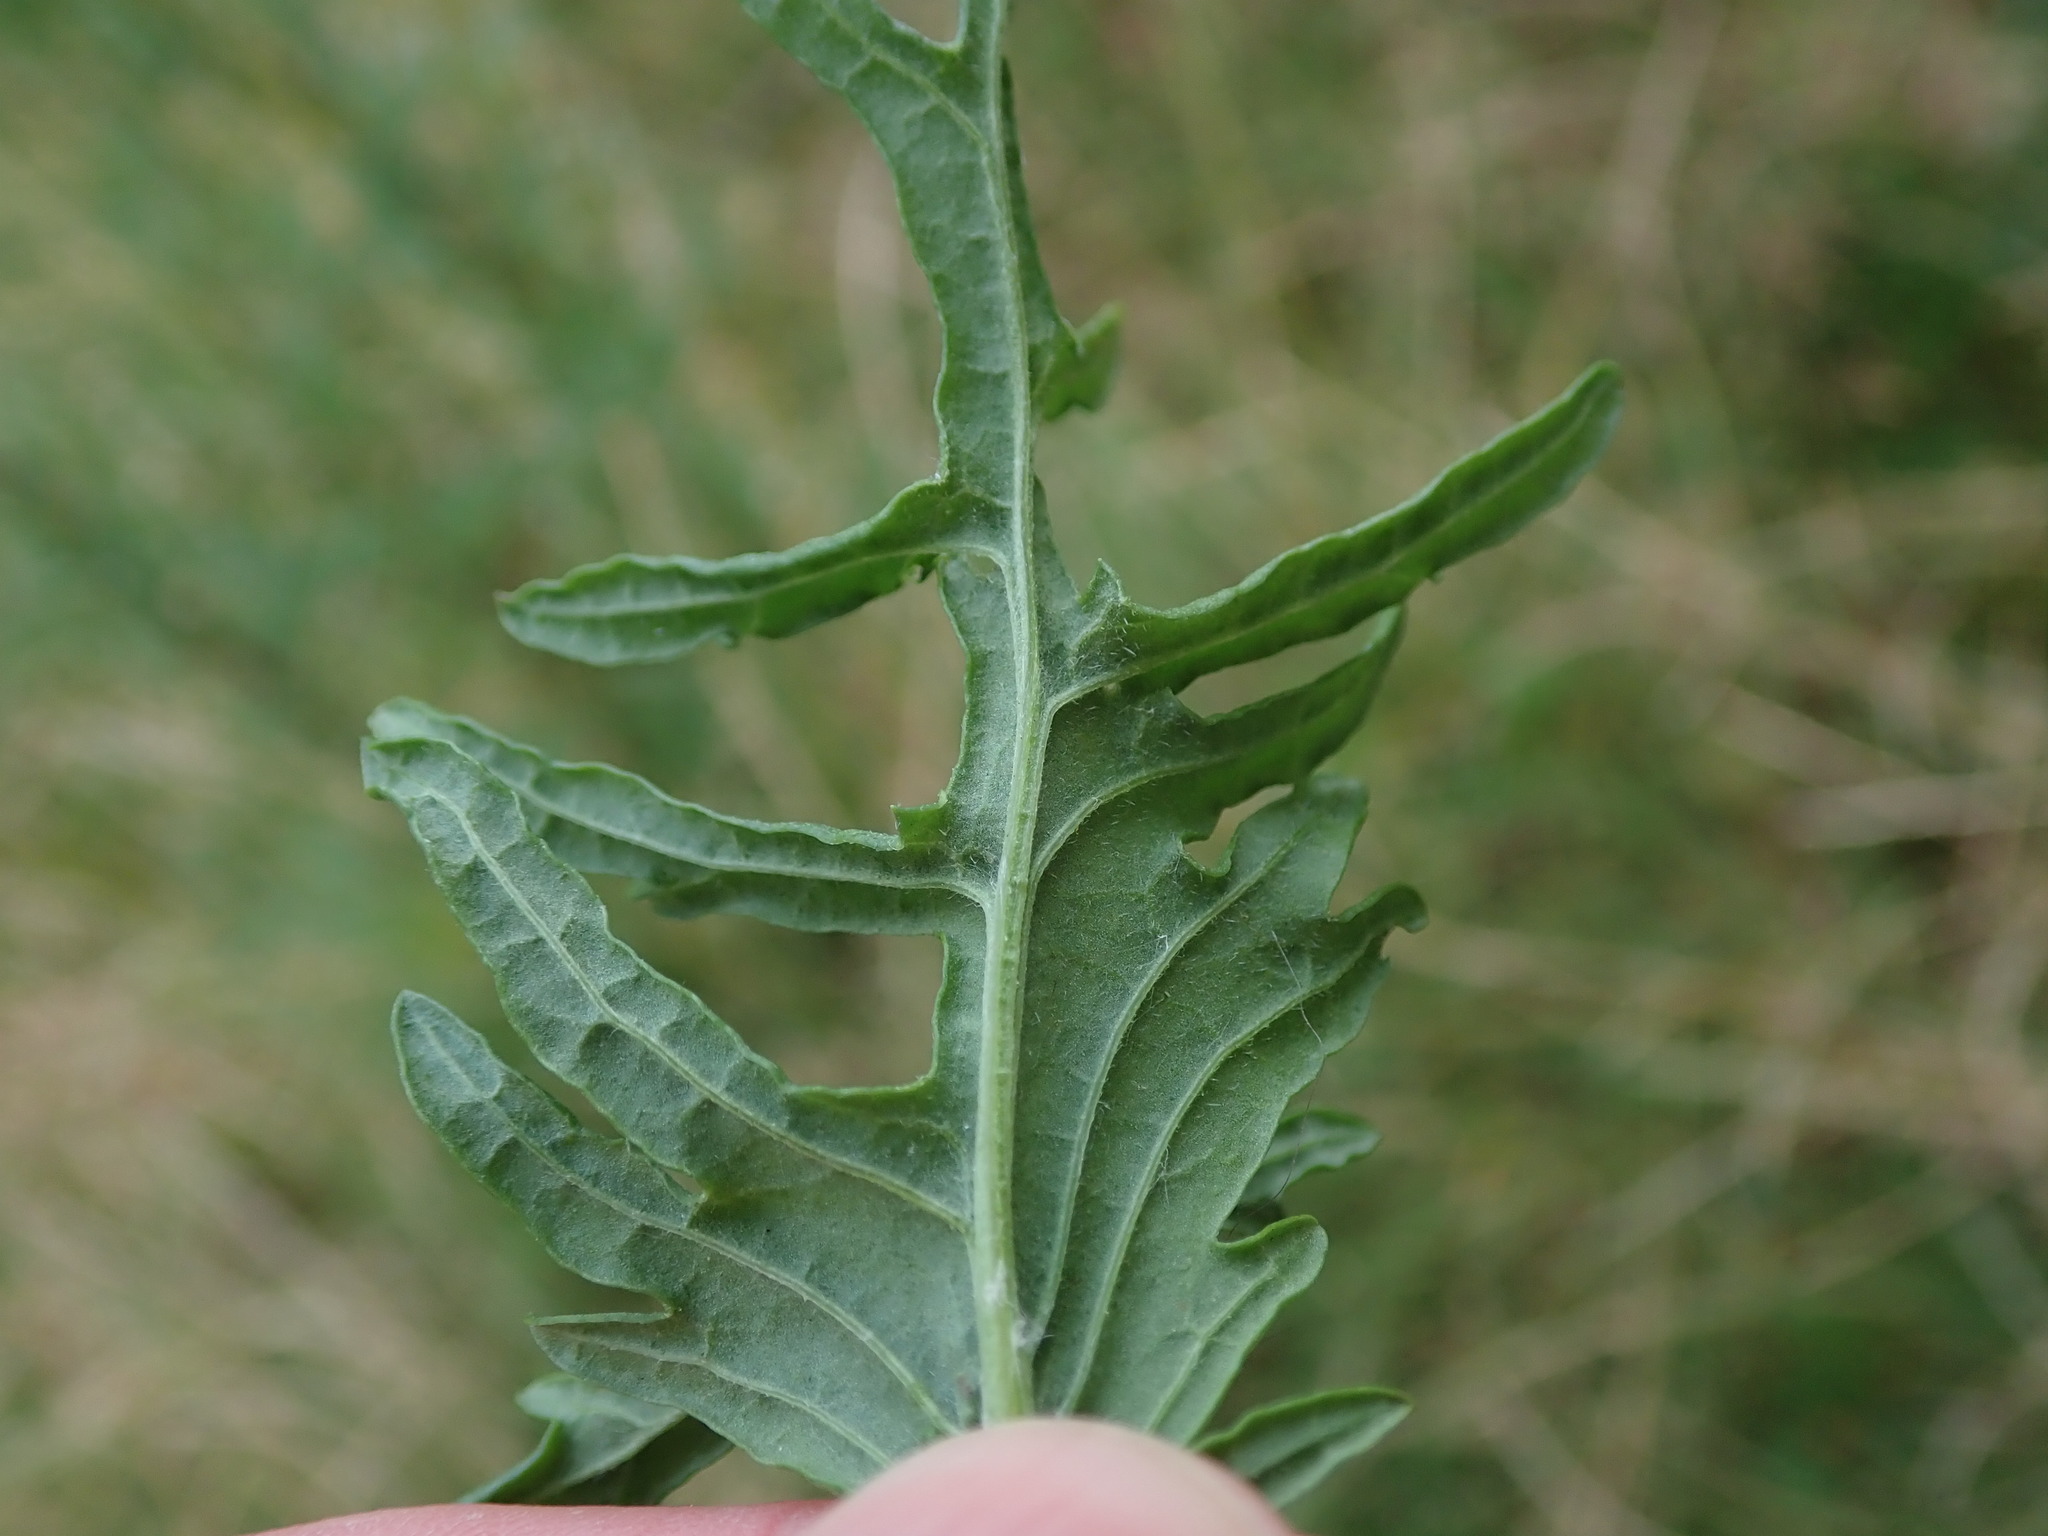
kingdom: Plantae
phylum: Tracheophyta
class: Magnoliopsida
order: Asterales
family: Asteraceae
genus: Jacobaea
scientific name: Jacobaea vulgaris
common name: Stinking willie
